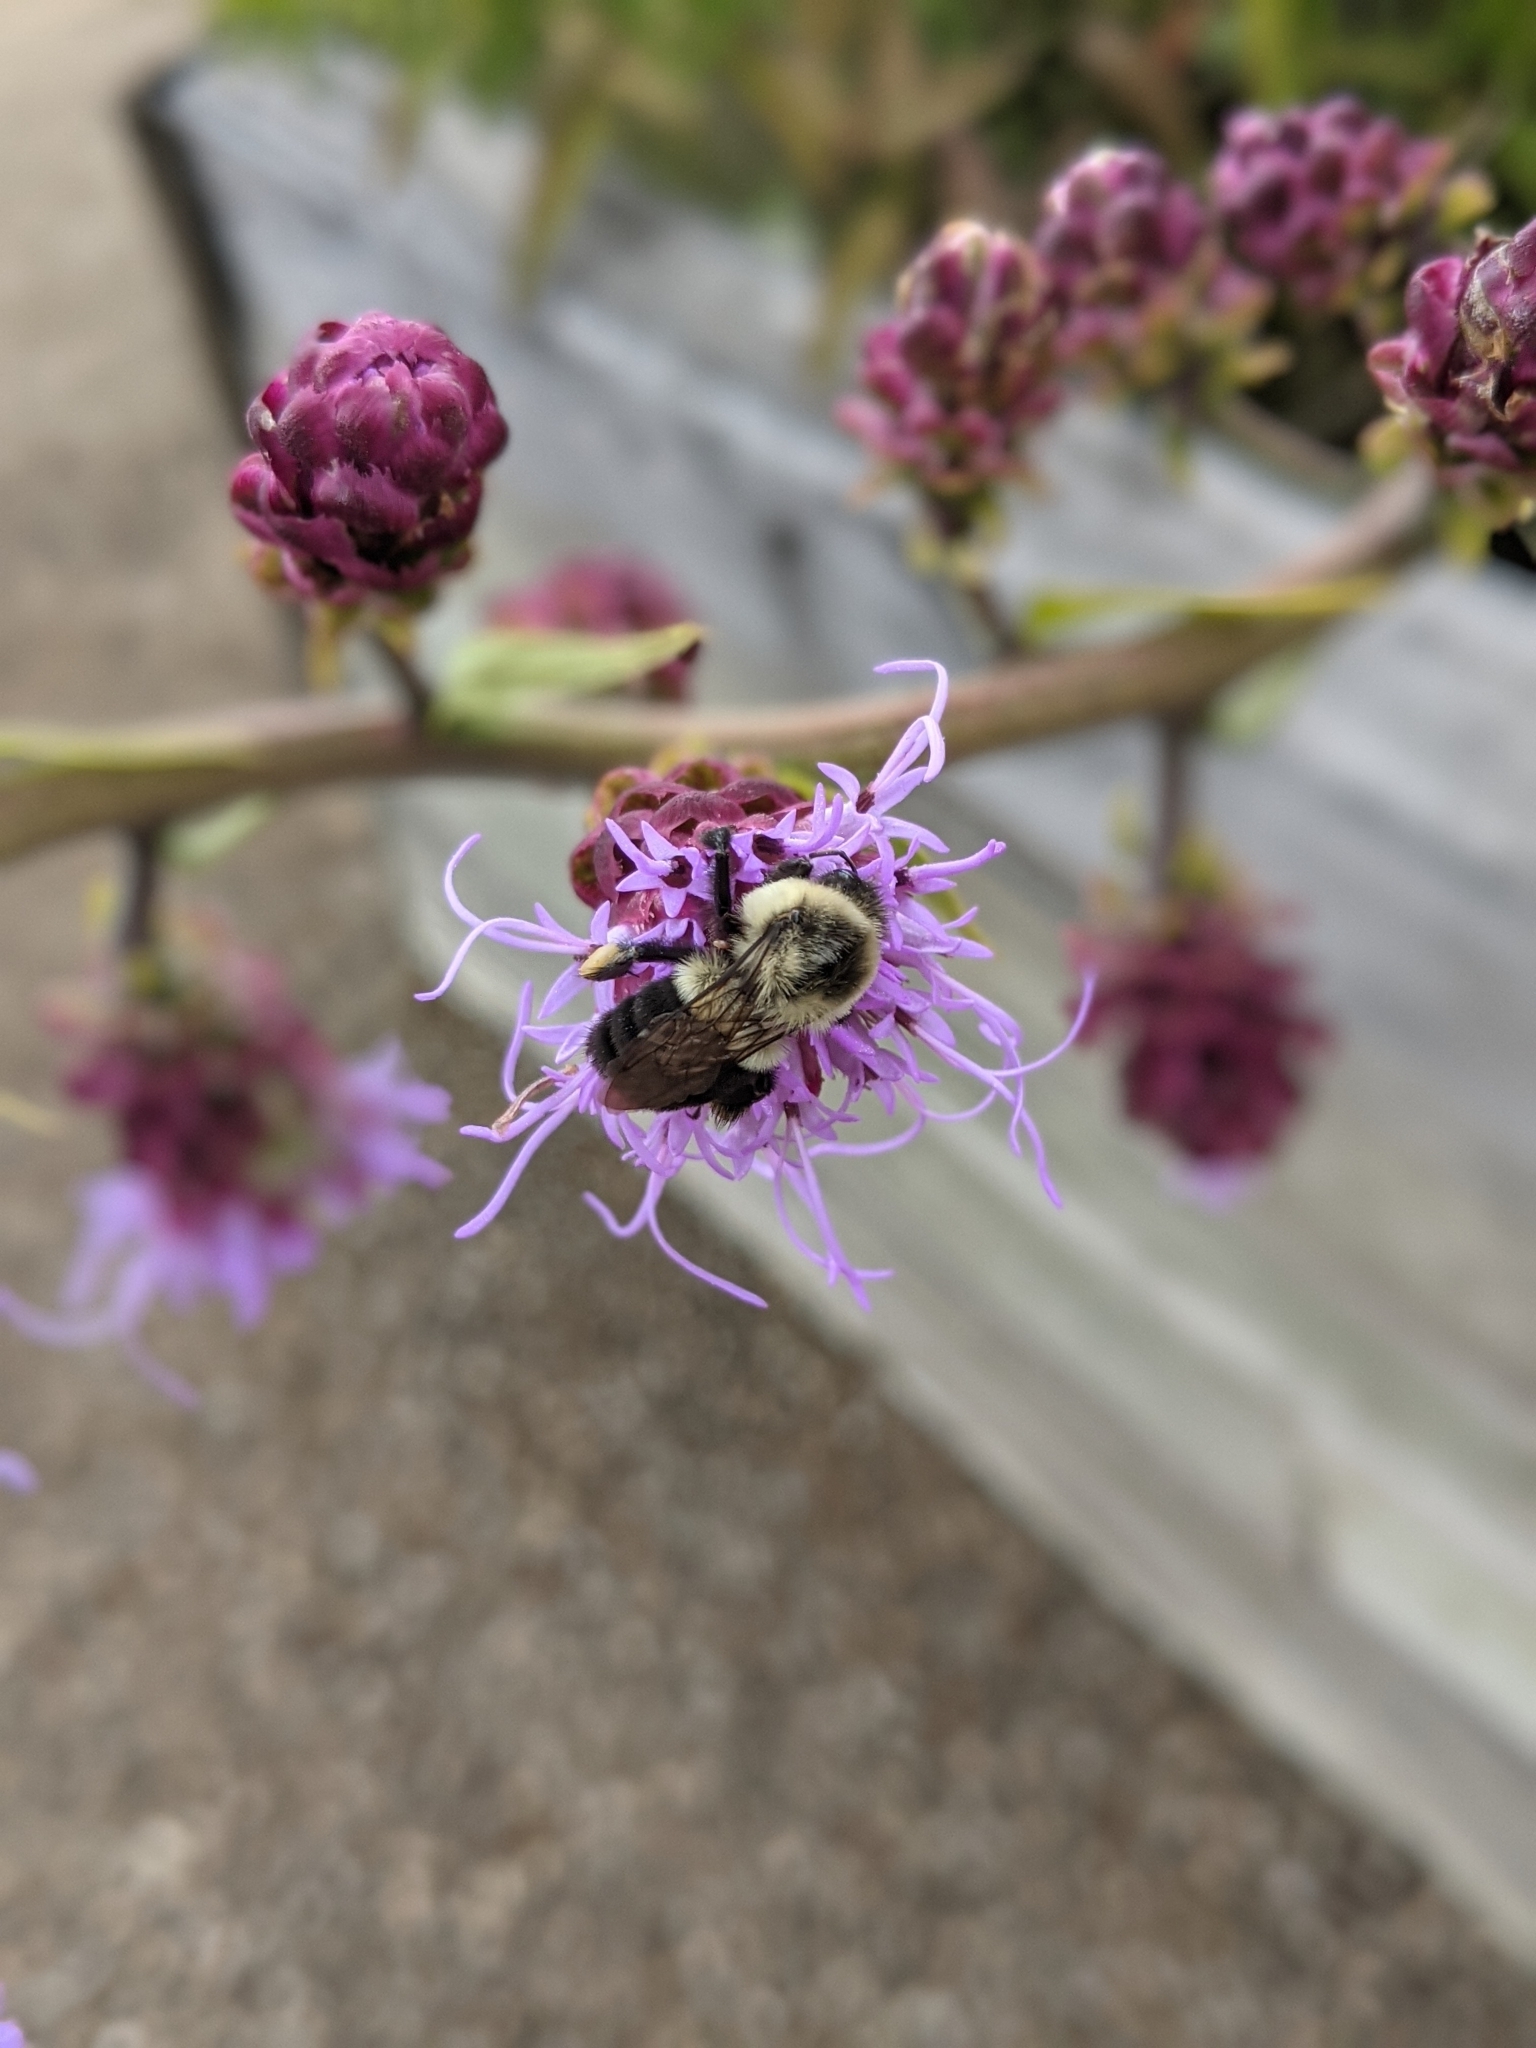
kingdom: Animalia
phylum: Arthropoda
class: Insecta
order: Hymenoptera
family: Apidae
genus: Bombus
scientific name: Bombus impatiens
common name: Common eastern bumble bee
